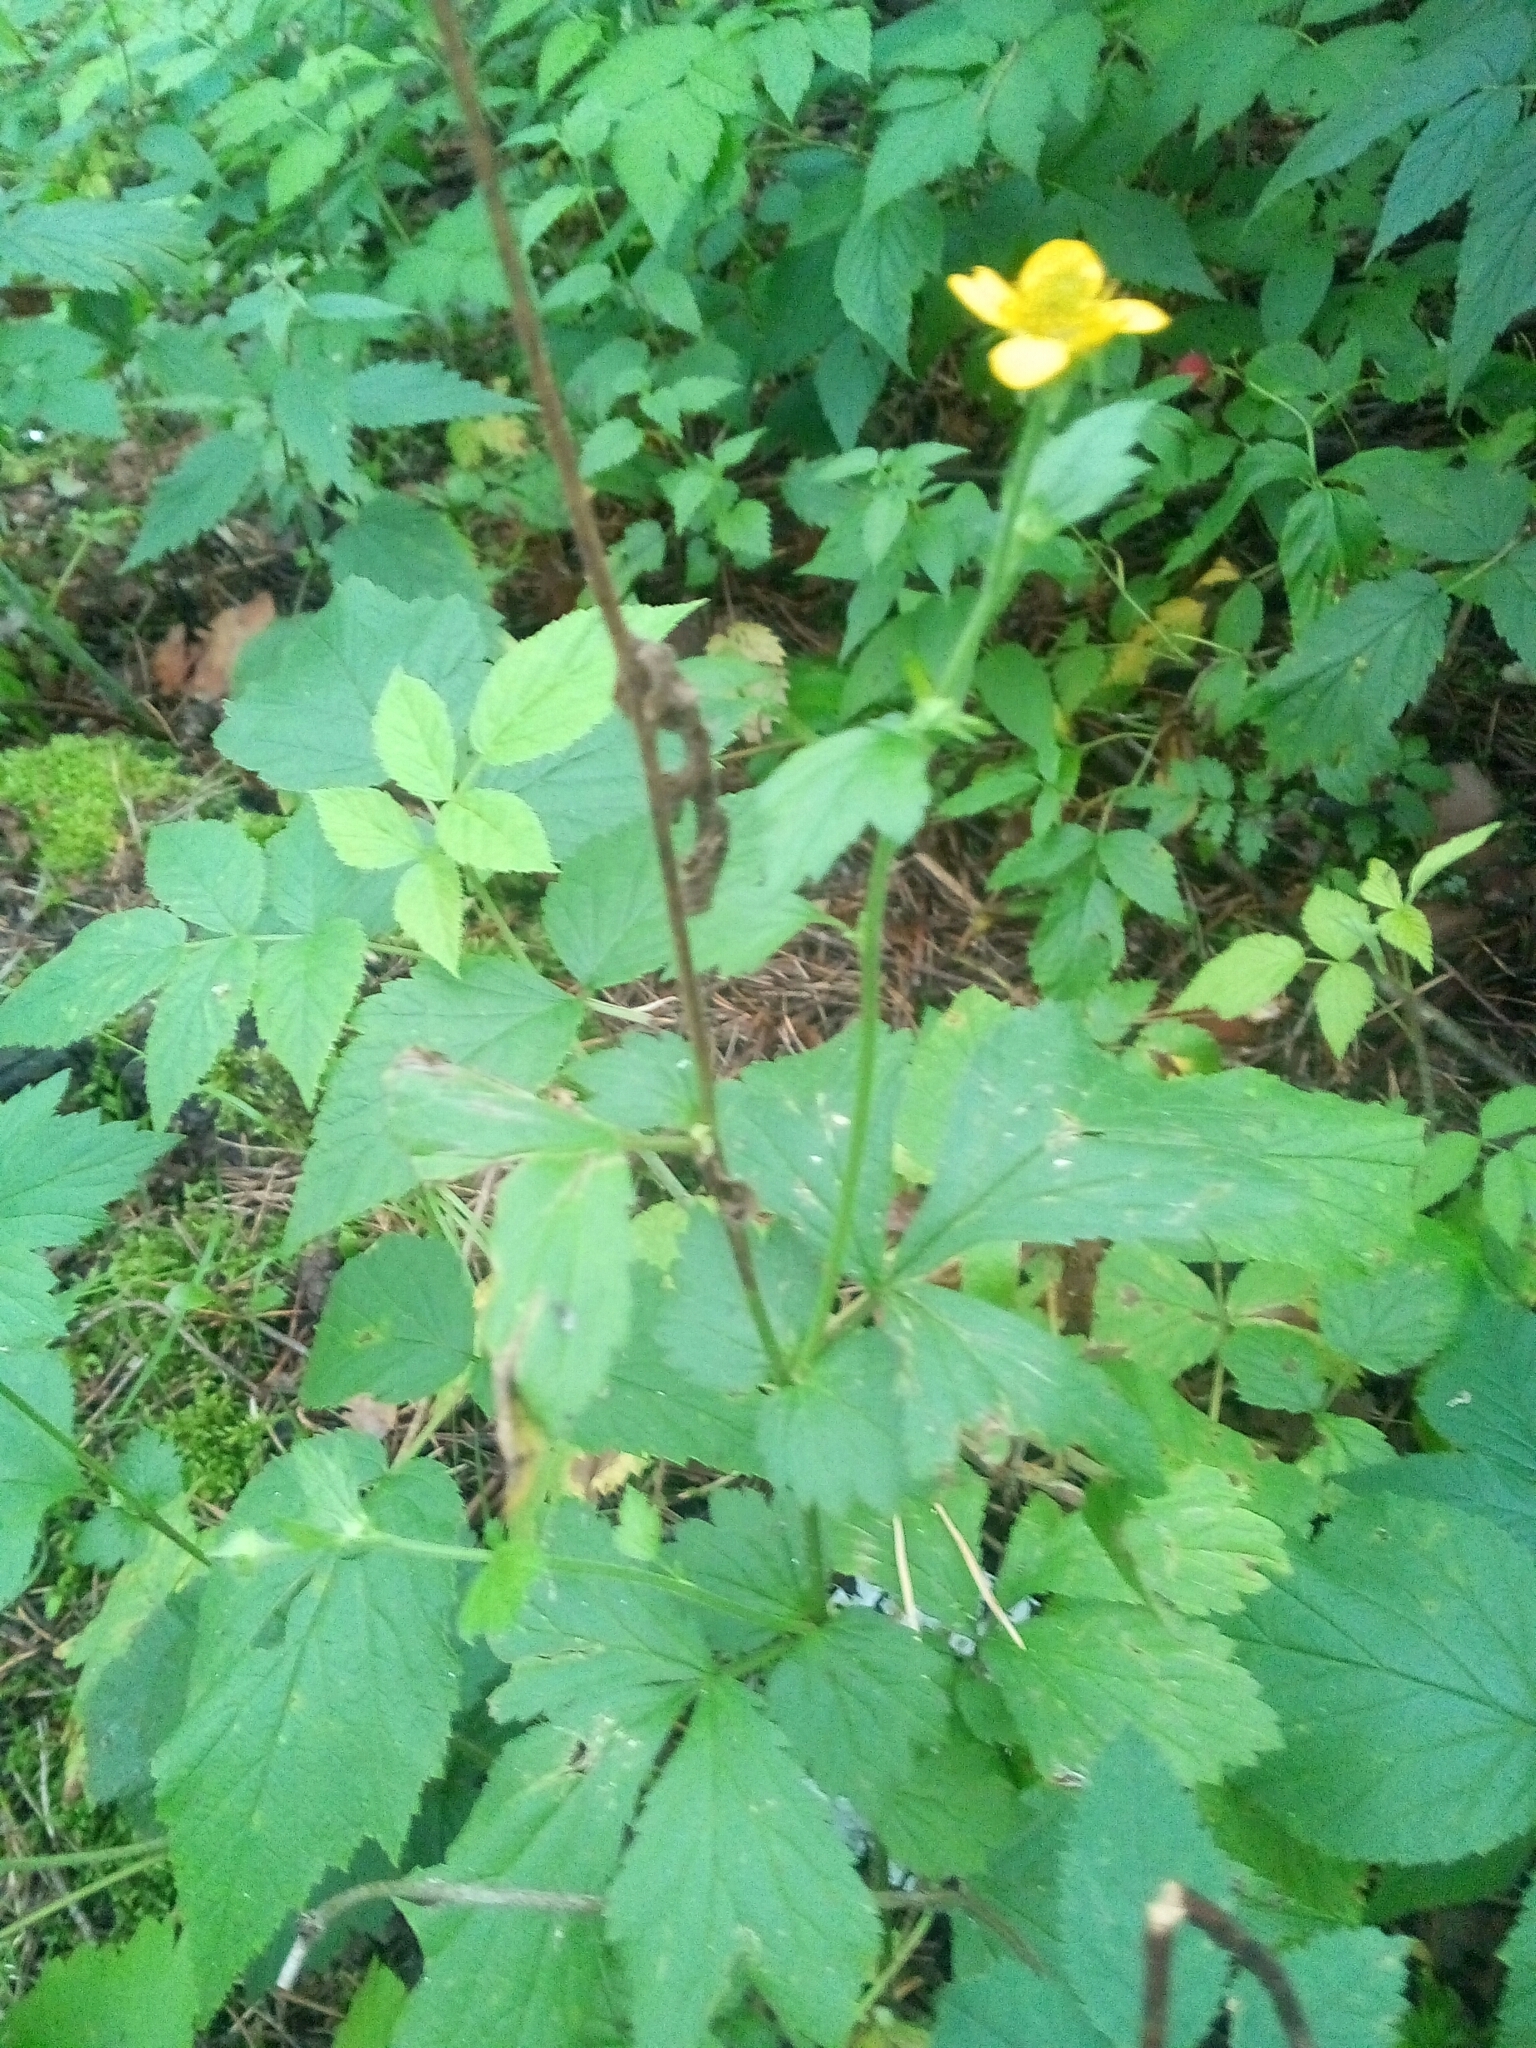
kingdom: Plantae
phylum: Tracheophyta
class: Magnoliopsida
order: Rosales
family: Rosaceae
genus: Geum
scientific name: Geum urbanum
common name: Wood avens
